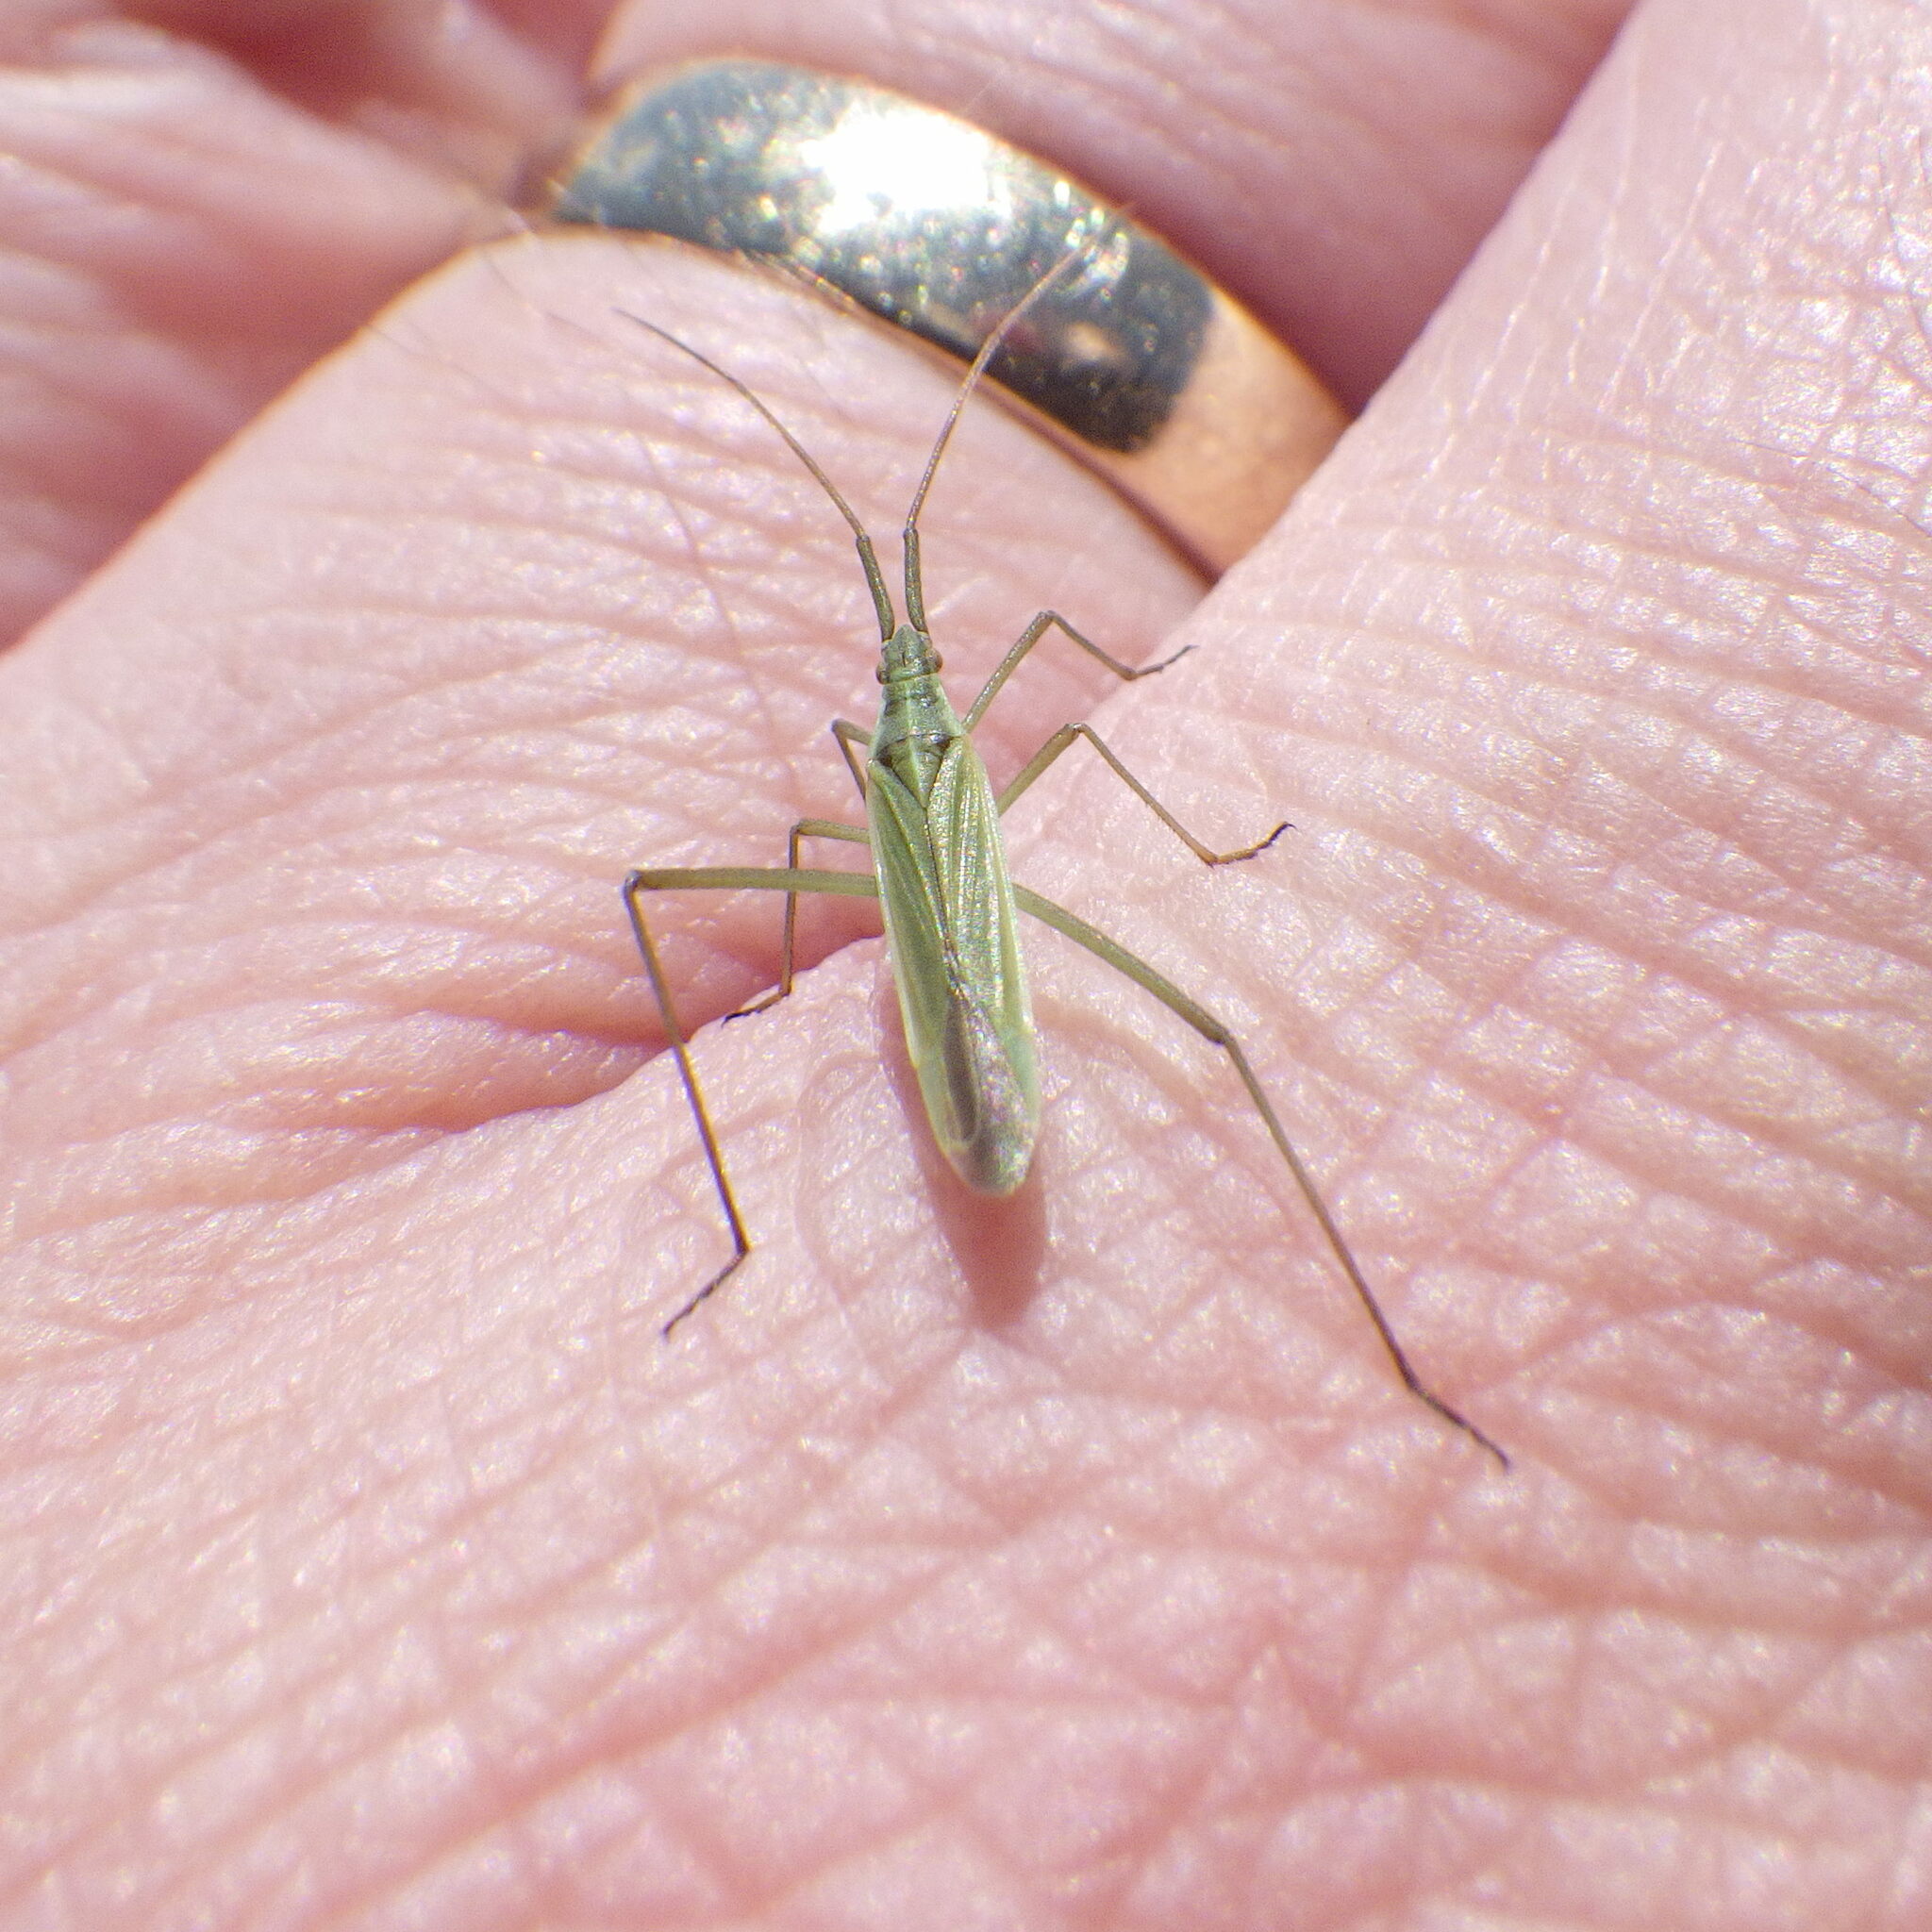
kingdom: Animalia
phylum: Arthropoda
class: Insecta
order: Hemiptera
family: Miridae
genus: Megaloceroea
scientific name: Megaloceroea recticornis
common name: Plant bug
